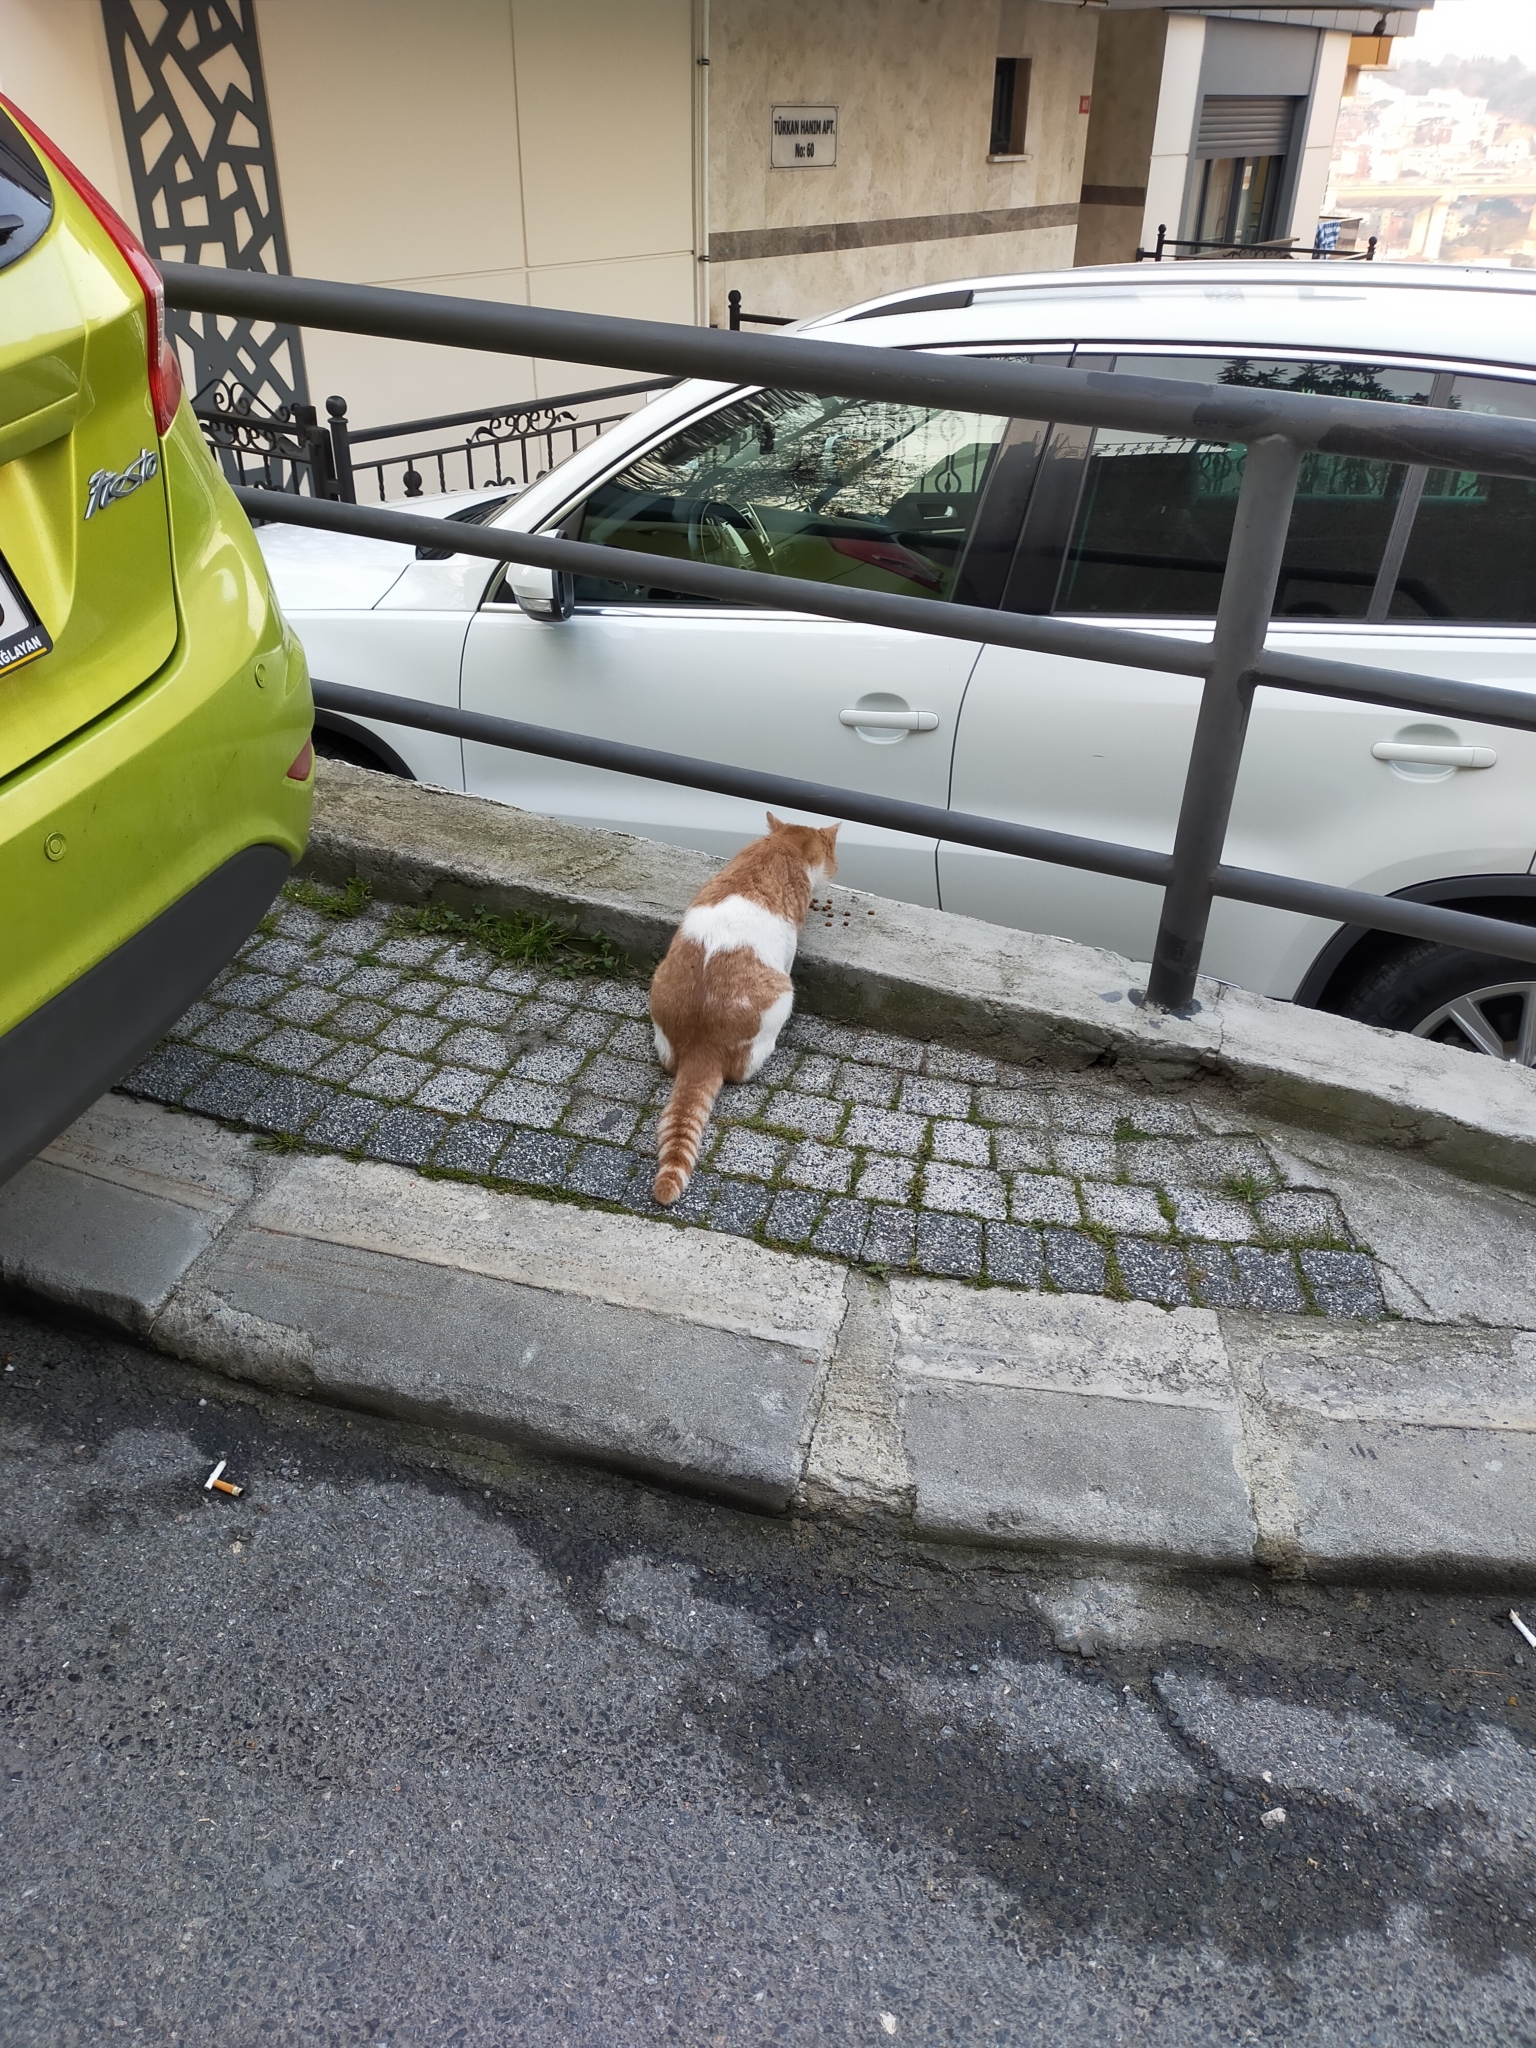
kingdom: Animalia
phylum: Chordata
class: Mammalia
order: Carnivora
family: Felidae
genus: Felis
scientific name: Felis catus
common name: Domestic cat
